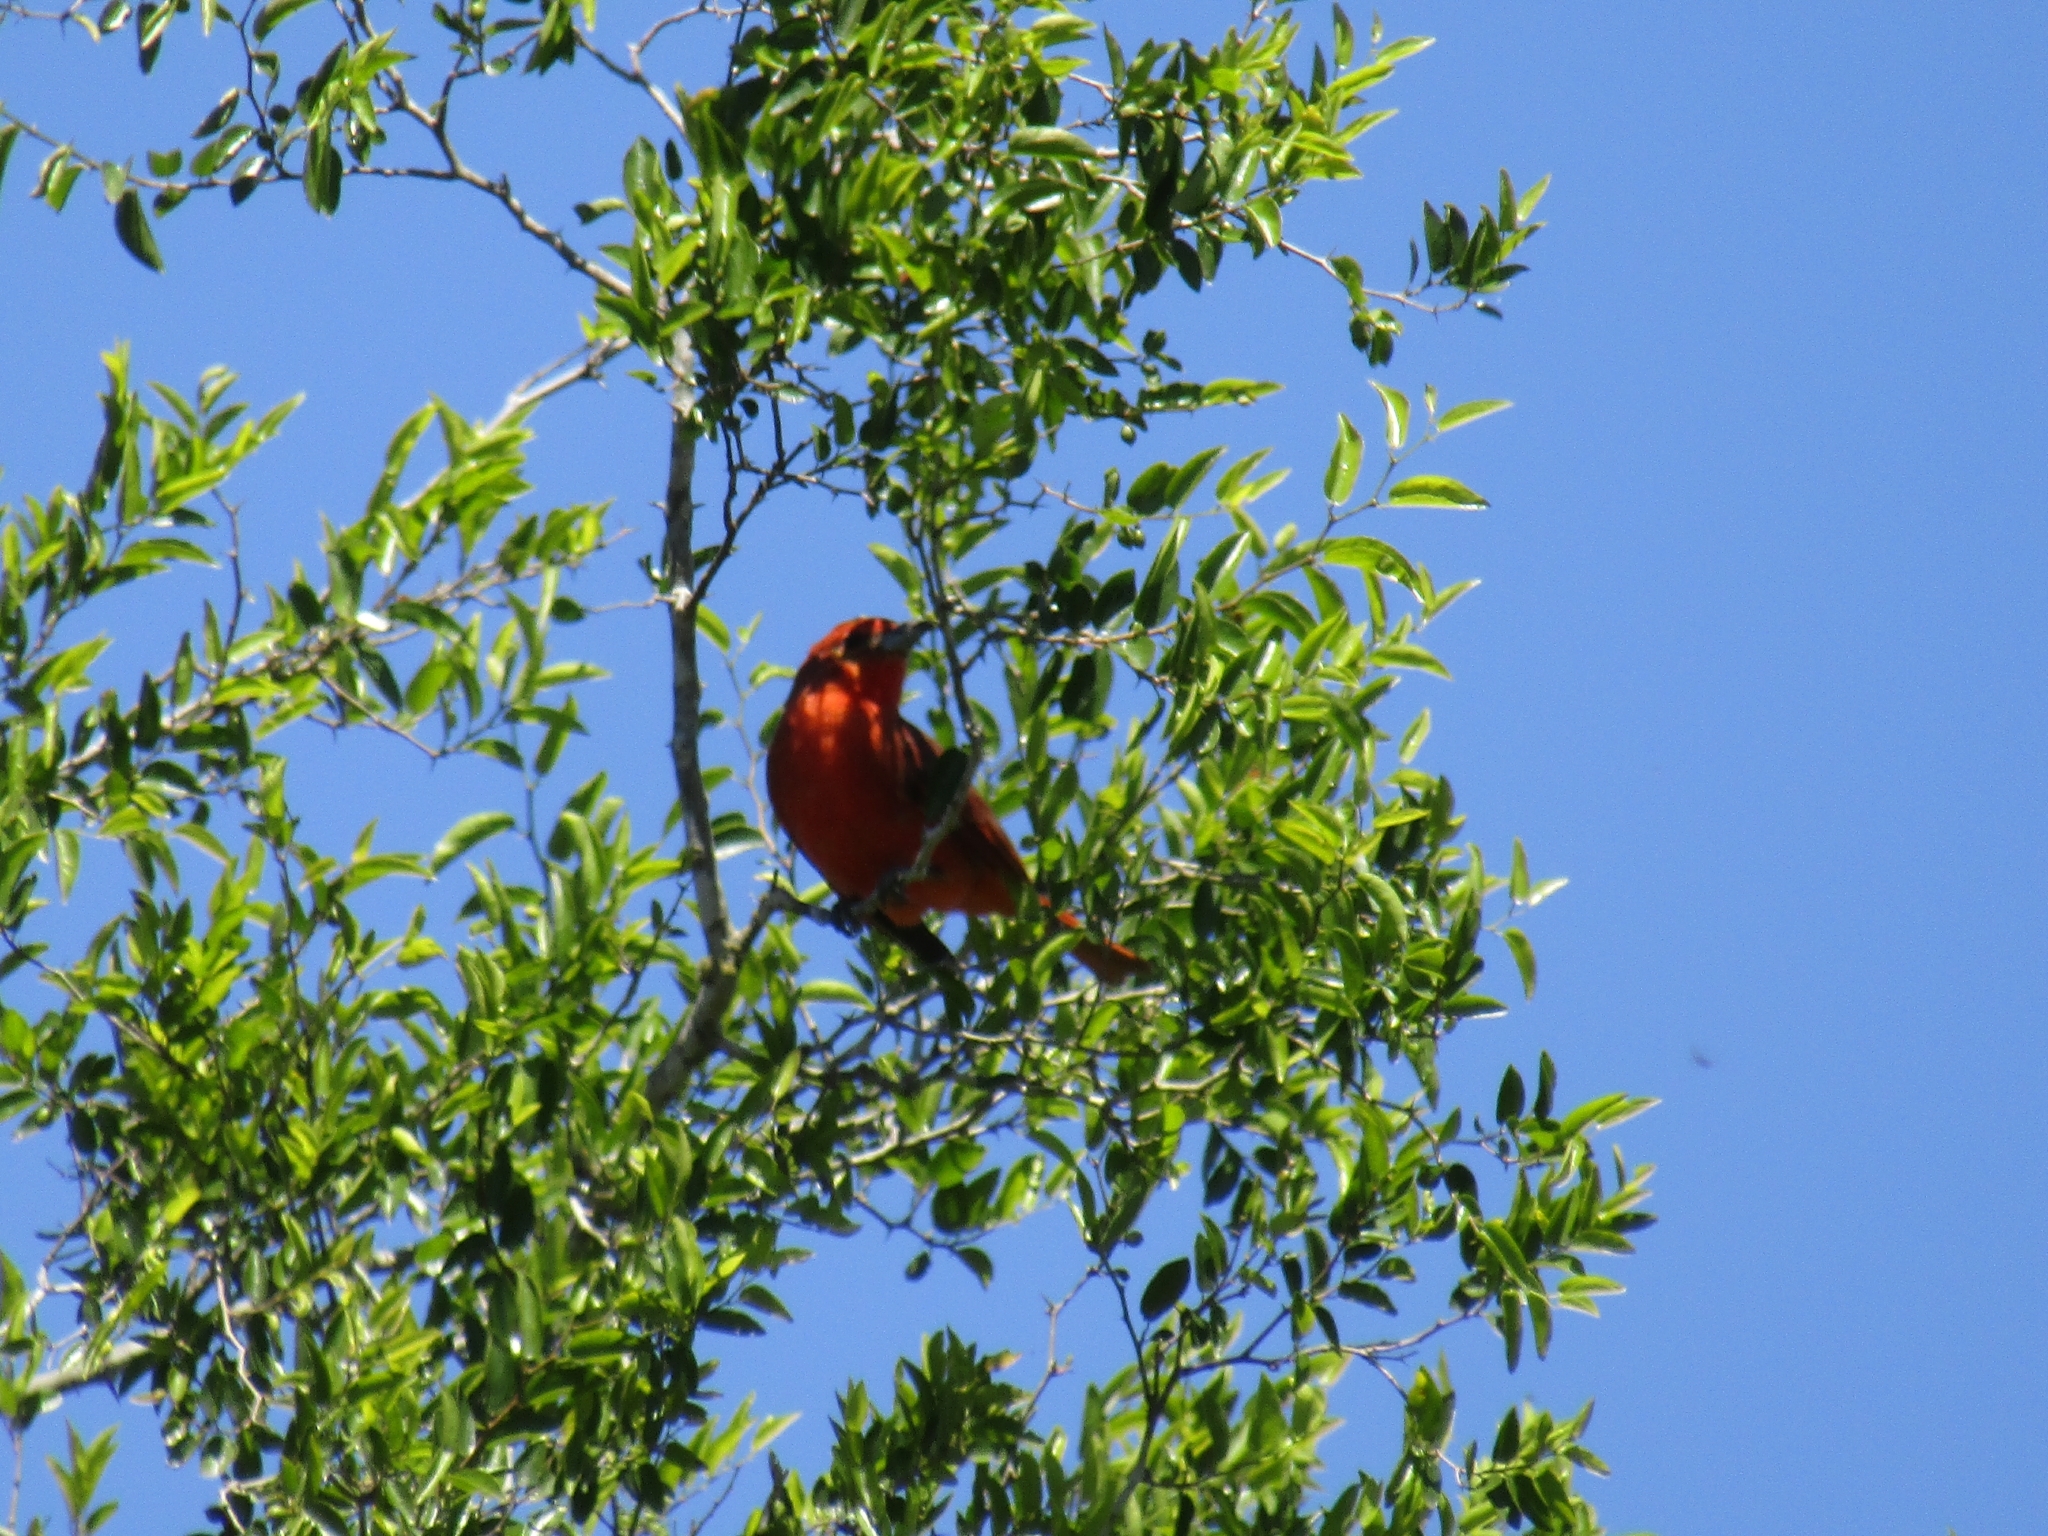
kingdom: Animalia
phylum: Chordata
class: Aves
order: Passeriformes
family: Cardinalidae
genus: Piranga
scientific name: Piranga flava
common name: Red tanager
